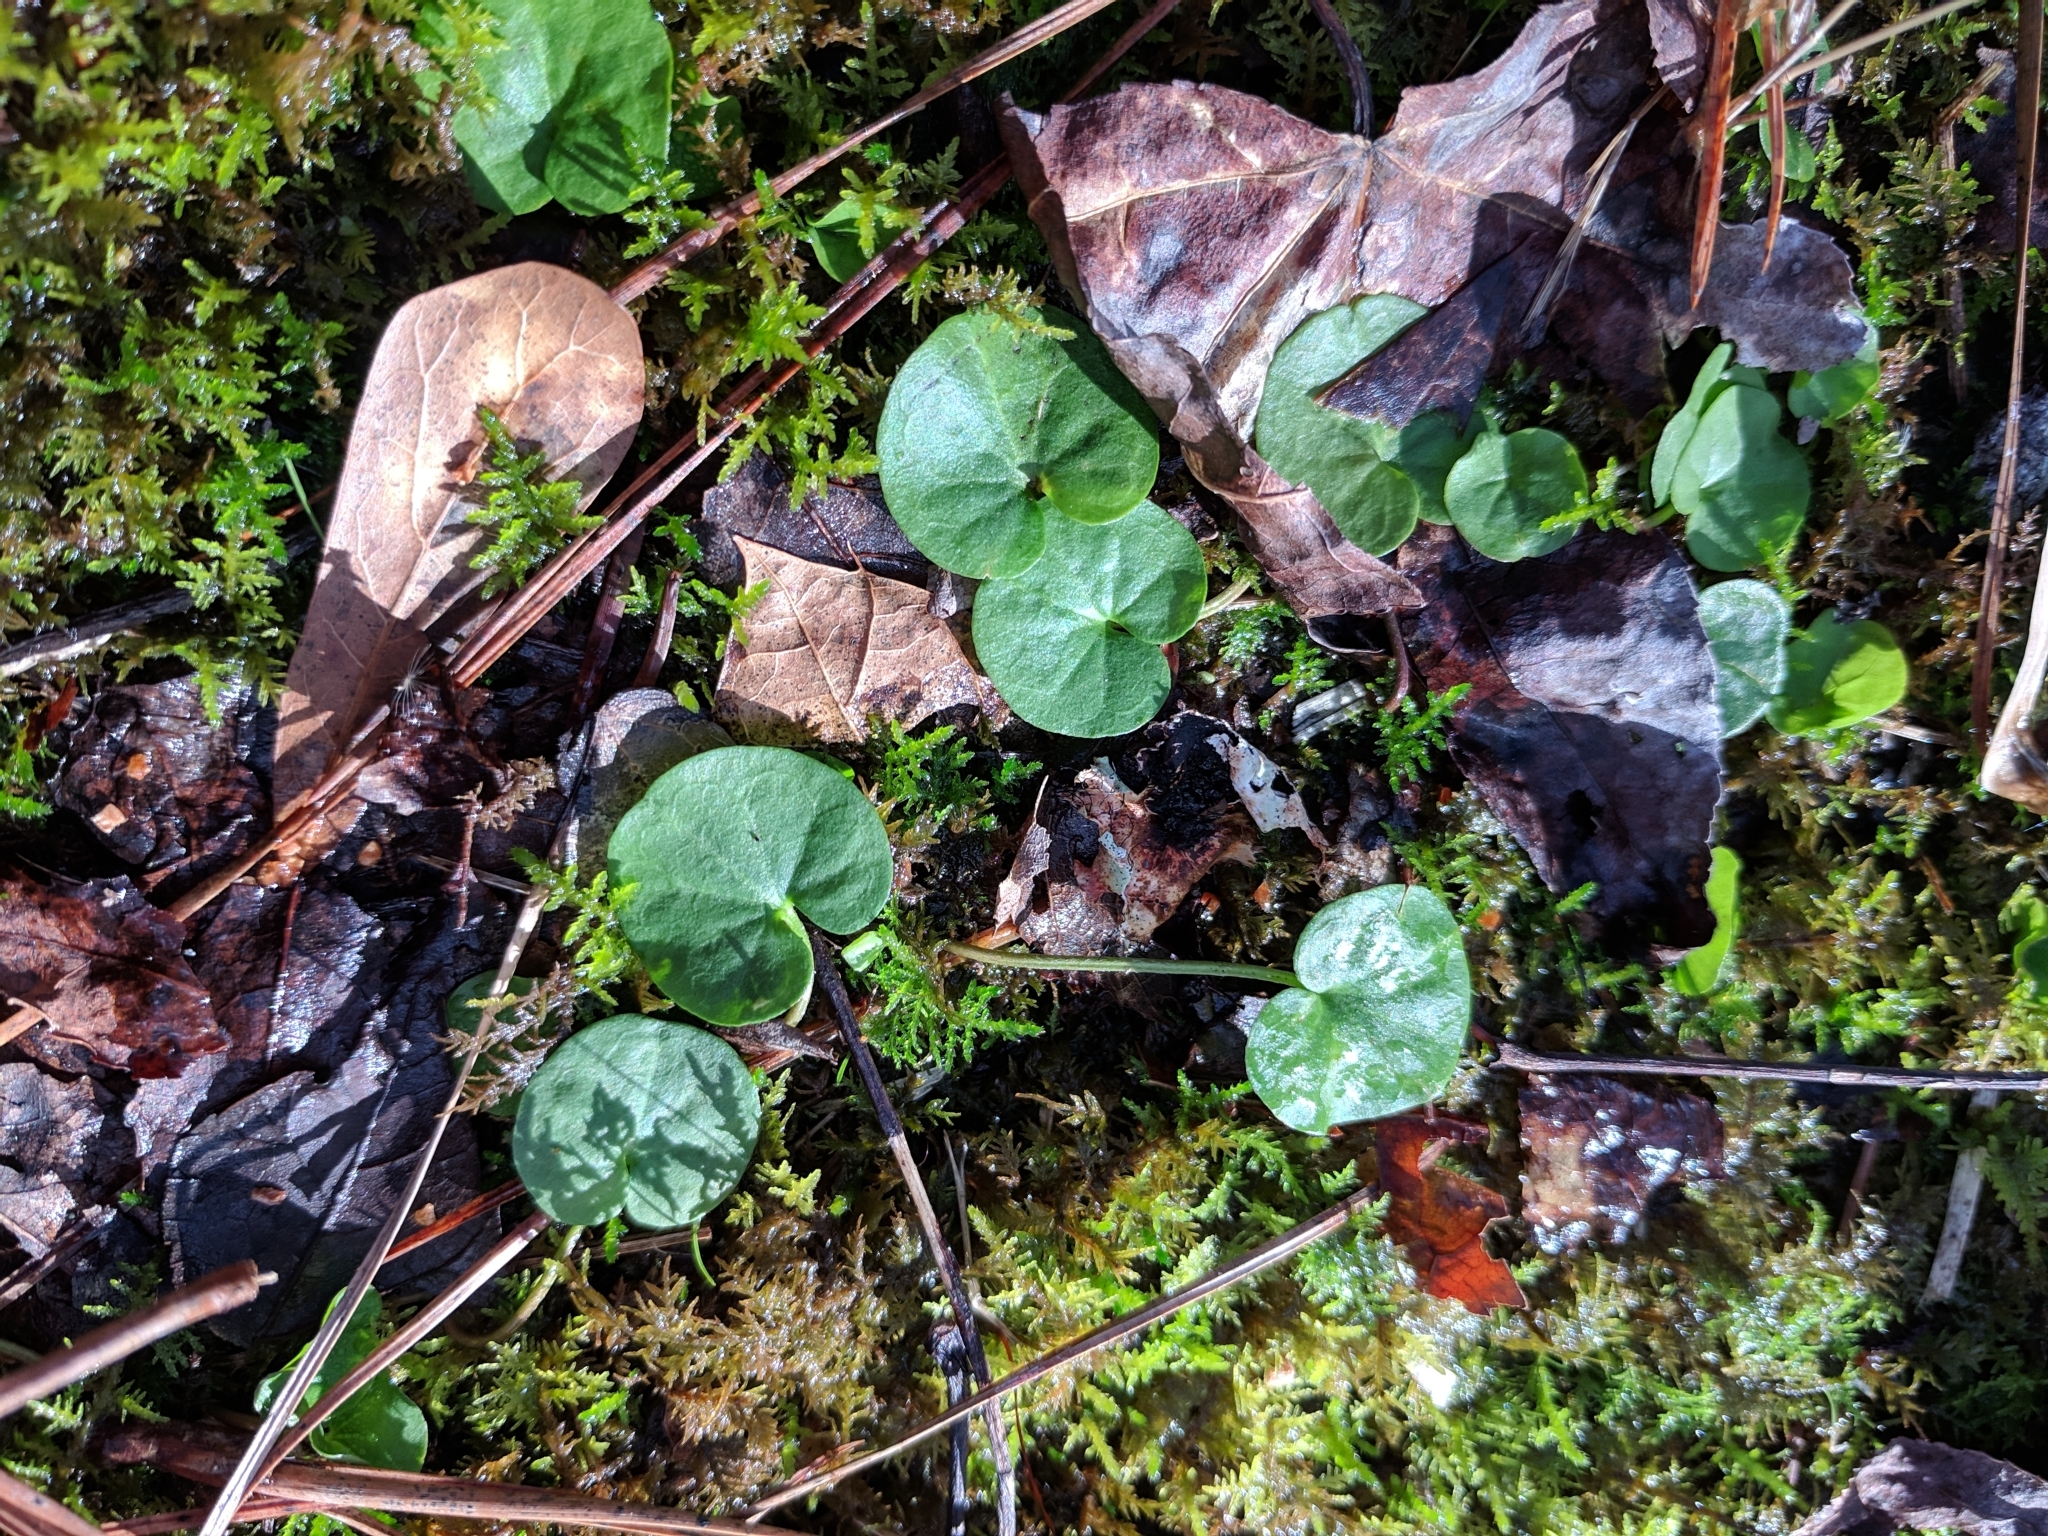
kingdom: Plantae
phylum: Tracheophyta
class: Magnoliopsida
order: Solanales
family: Convolvulaceae
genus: Dichondra
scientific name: Dichondra carolinensis
